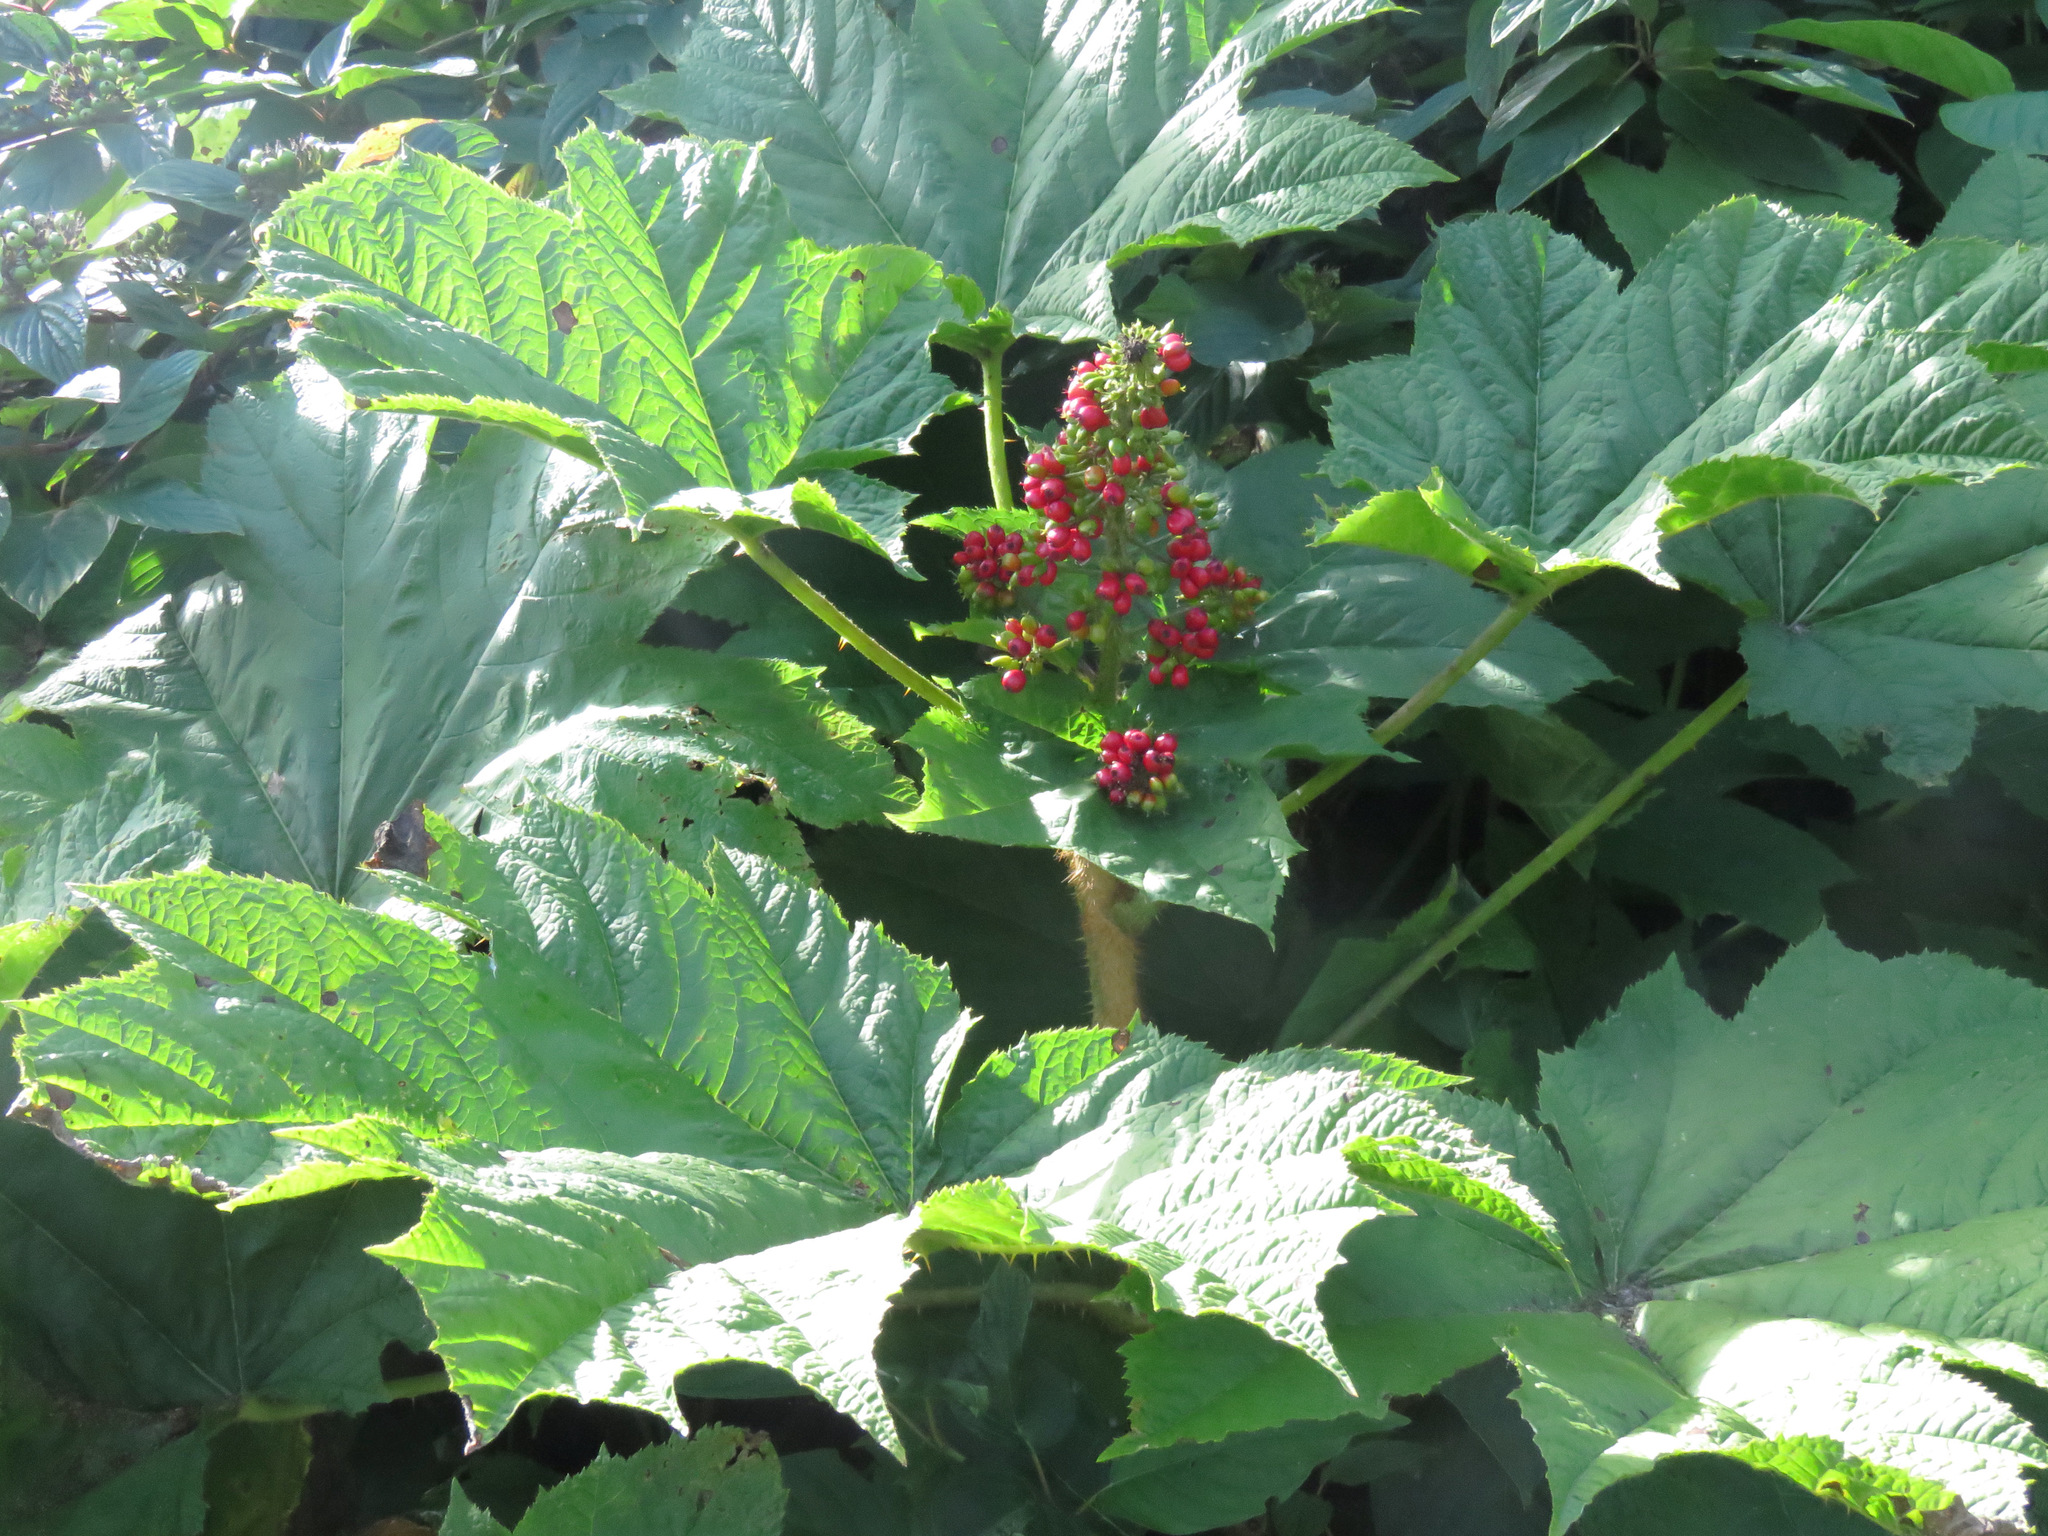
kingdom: Plantae
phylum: Tracheophyta
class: Magnoliopsida
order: Apiales
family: Araliaceae
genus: Oplopanax
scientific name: Oplopanax horridus
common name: Devil's walking-stick
